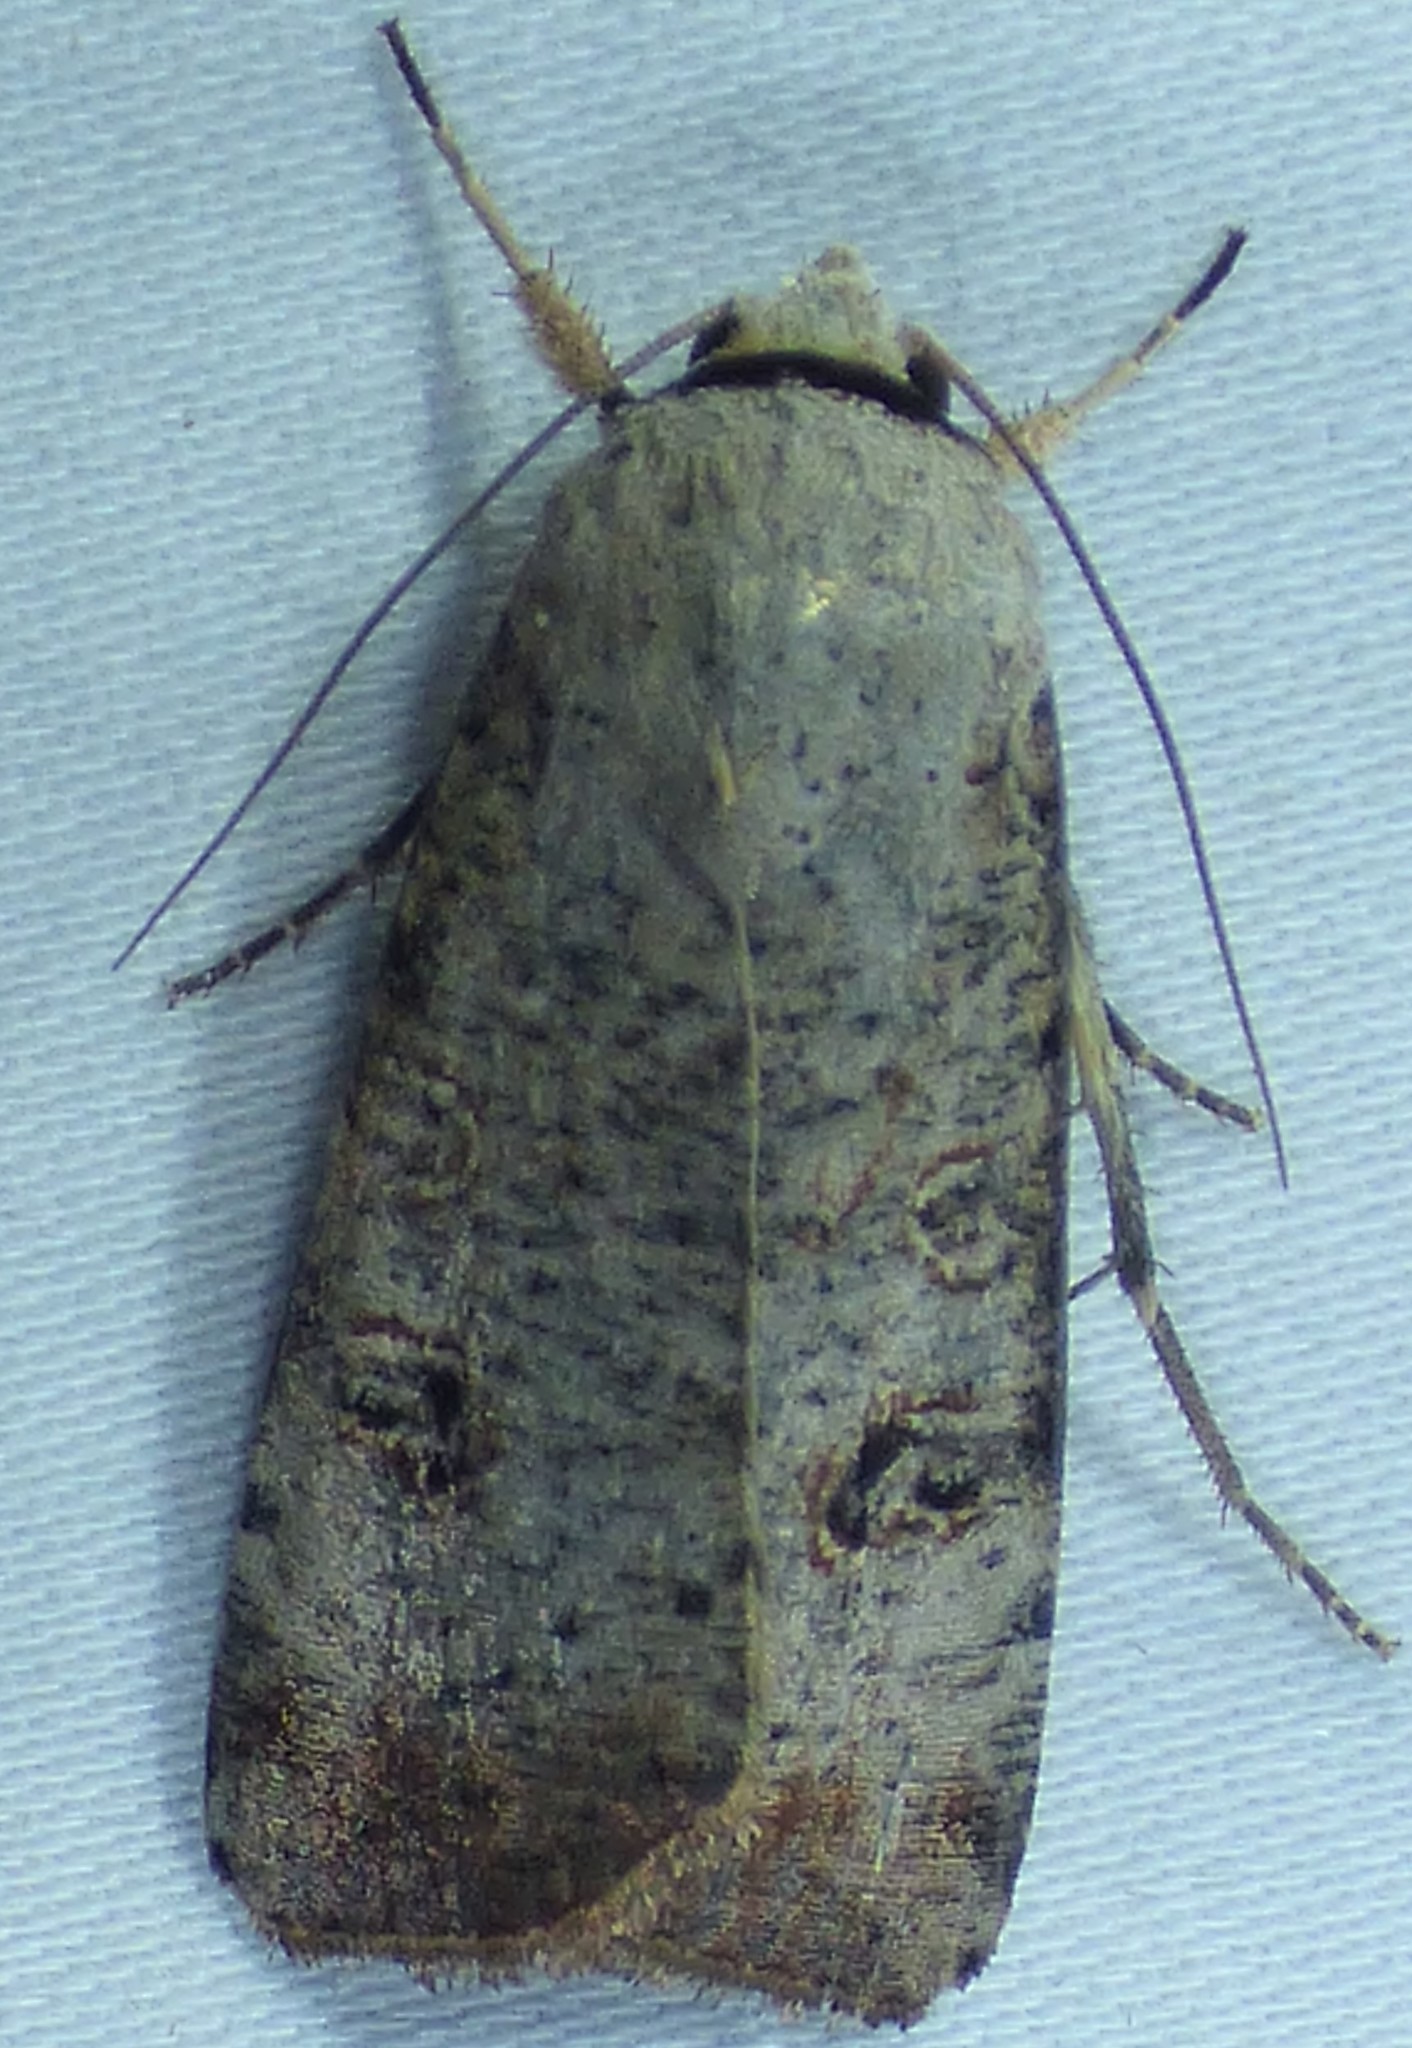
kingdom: Animalia
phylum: Arthropoda
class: Insecta
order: Lepidoptera
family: Noctuidae
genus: Anicla
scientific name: Anicla infecta
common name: Green cutworm
